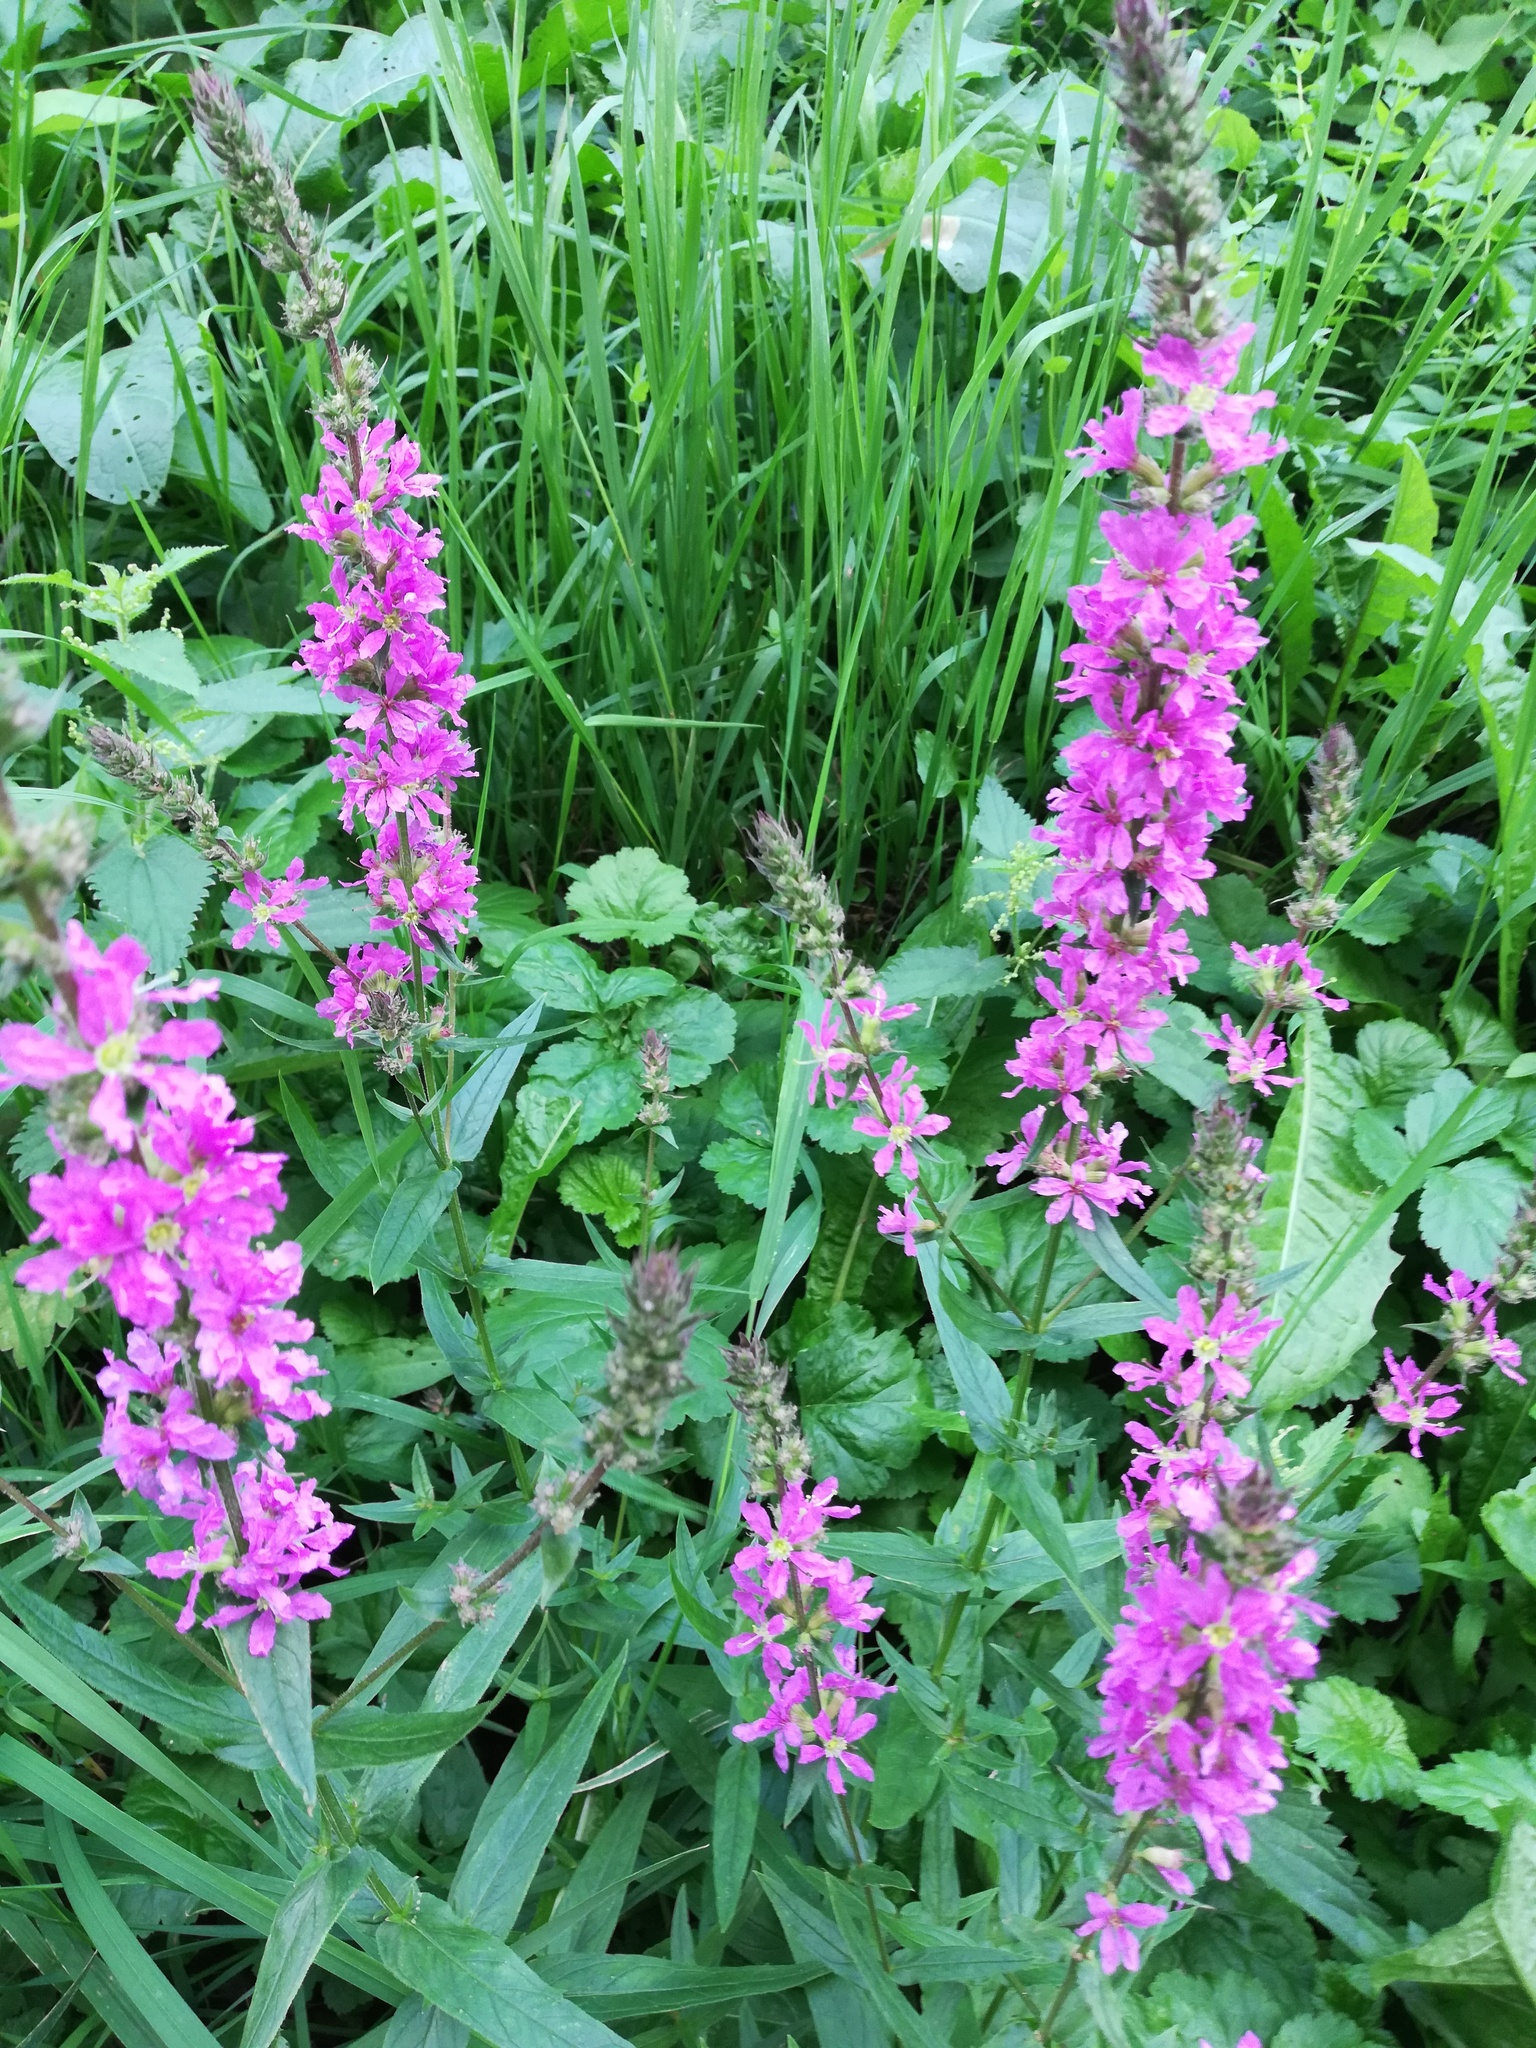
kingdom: Plantae
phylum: Tracheophyta
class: Magnoliopsida
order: Myrtales
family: Lythraceae
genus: Lythrum
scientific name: Lythrum salicaria
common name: Purple loosestrife
